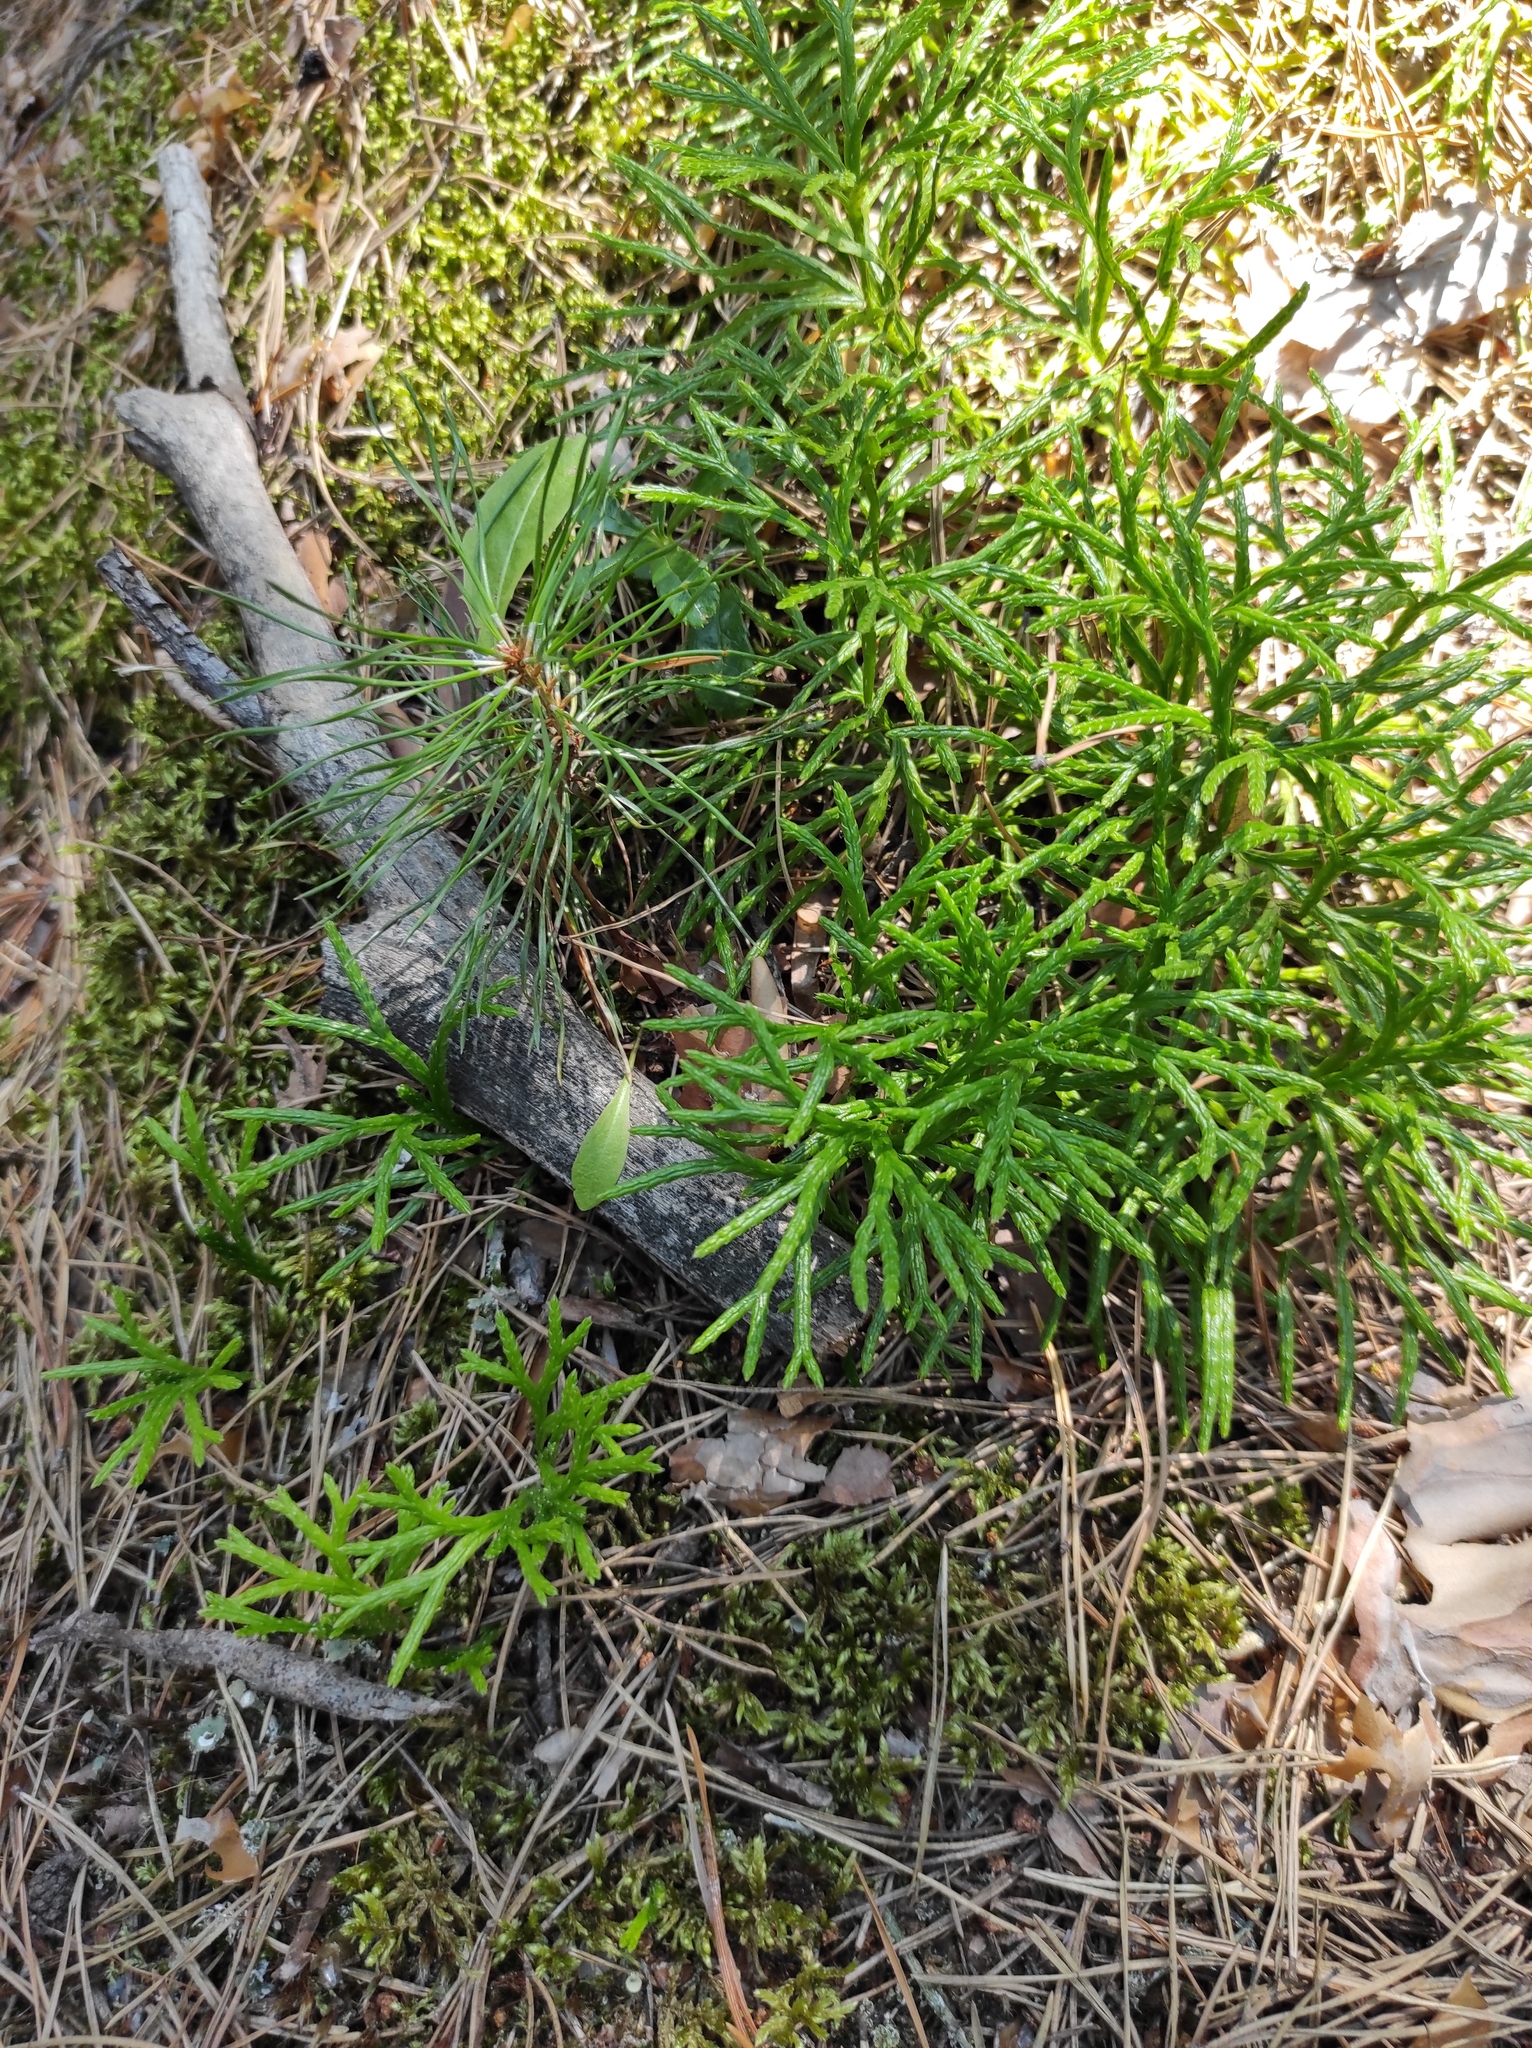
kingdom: Plantae
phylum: Tracheophyta
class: Lycopodiopsida
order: Lycopodiales
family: Lycopodiaceae
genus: Diphasiastrum
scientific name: Diphasiastrum complanatum
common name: Northern running-pine
